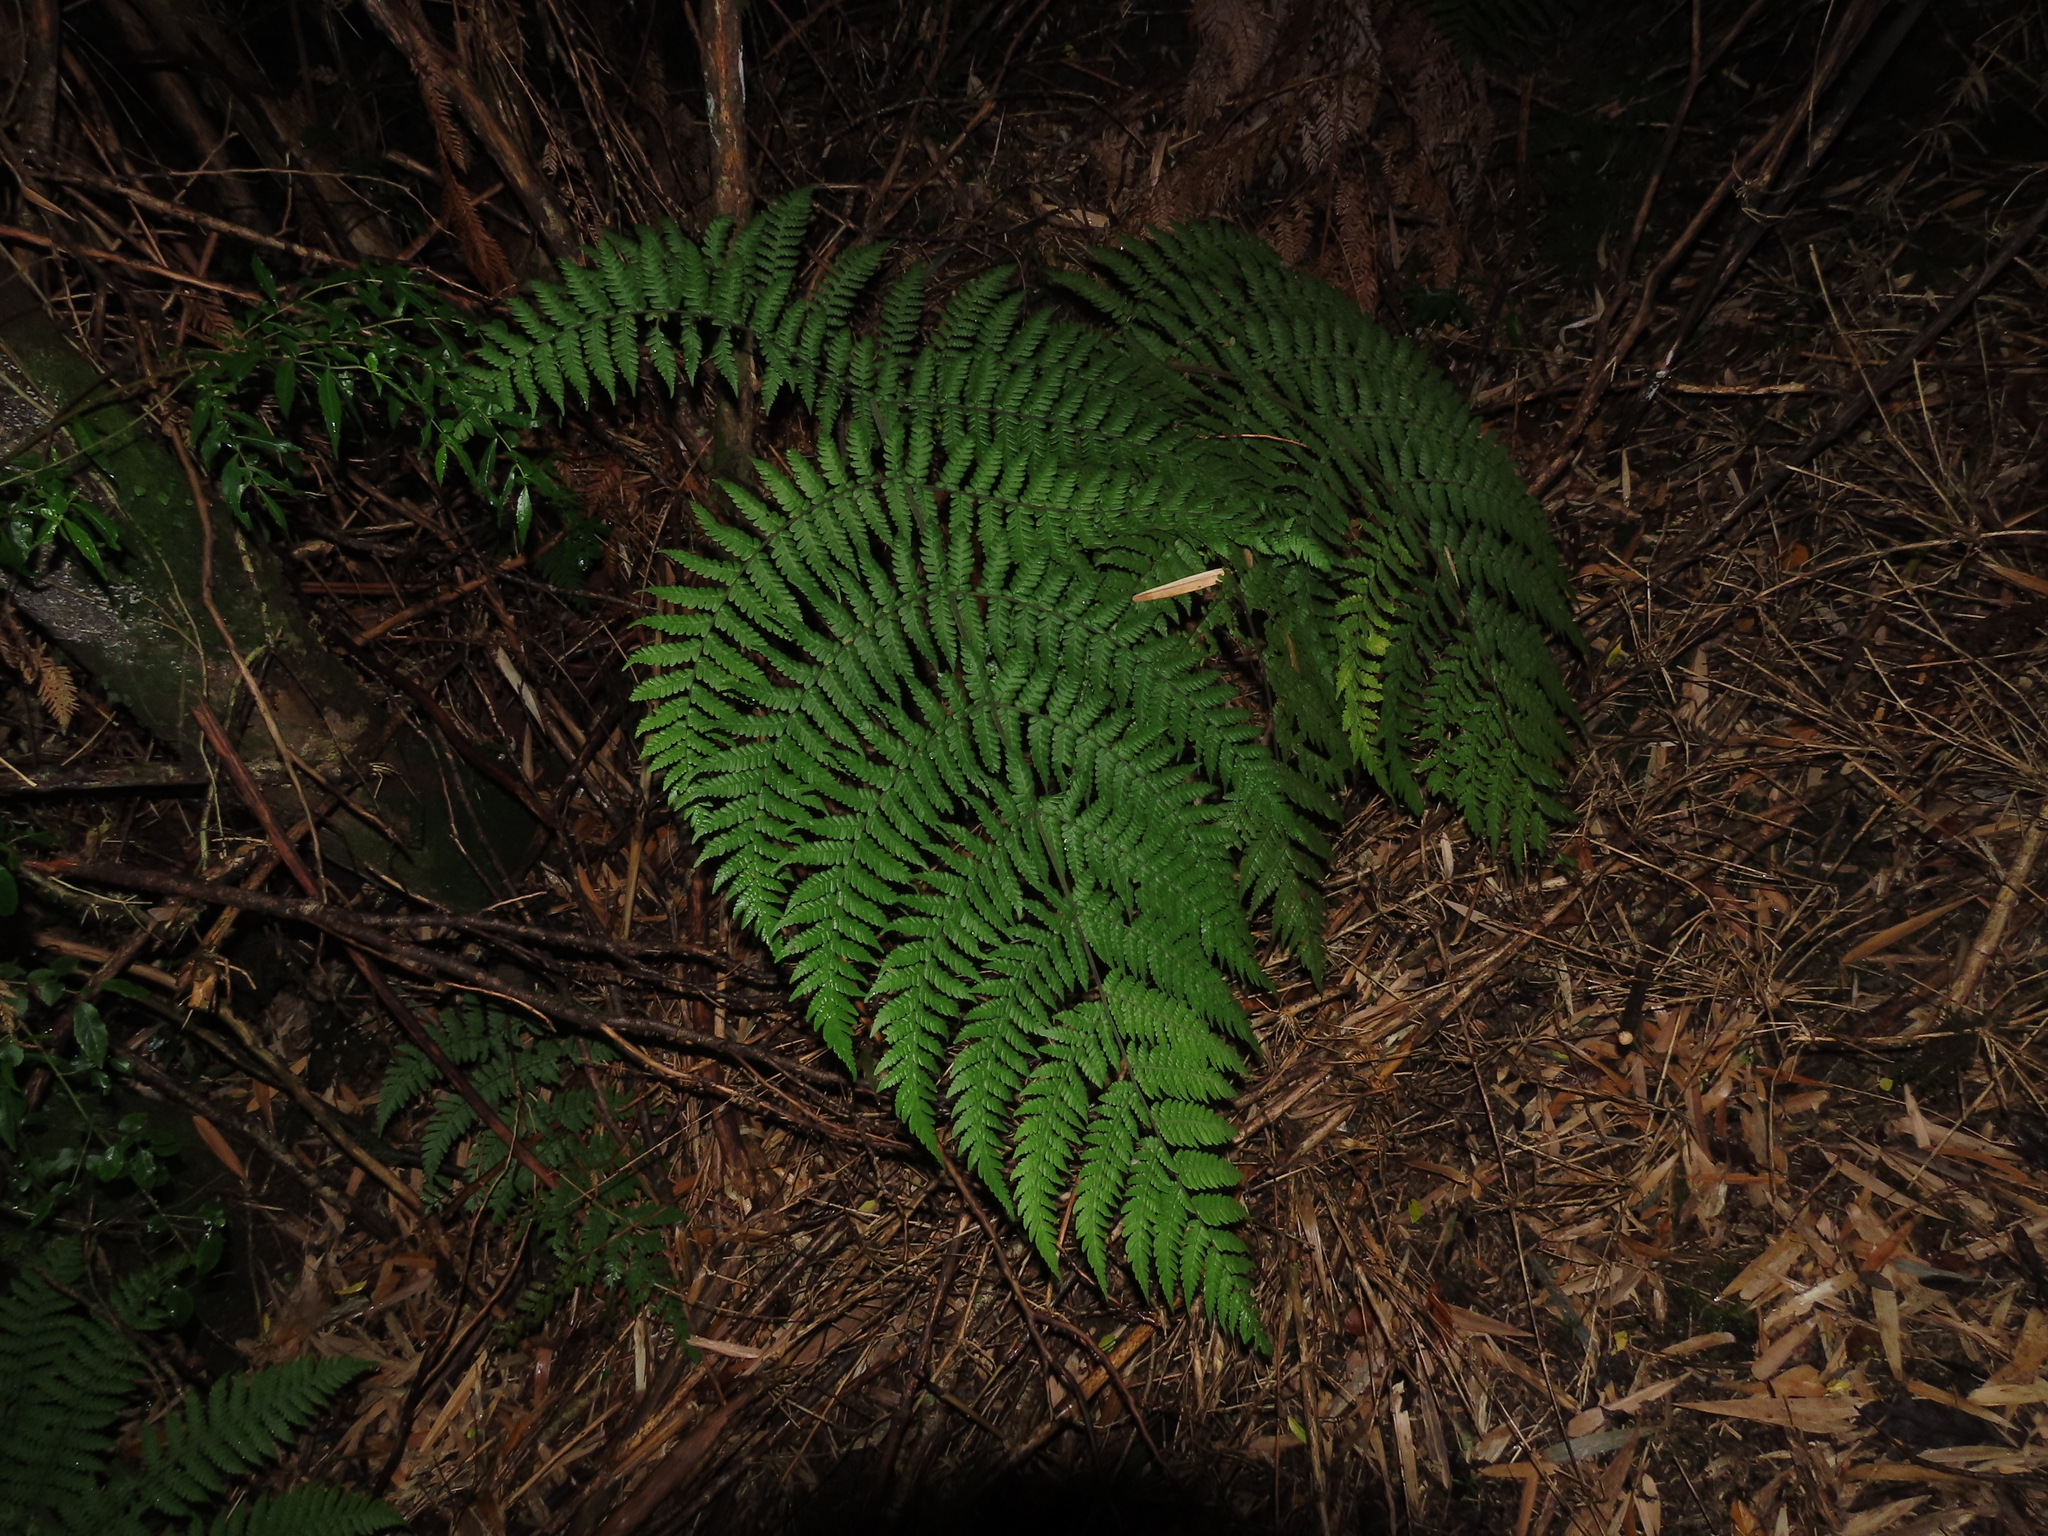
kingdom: Plantae
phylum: Tracheophyta
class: Polypodiopsida
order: Polypodiales
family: Dryopteridaceae
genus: Megalastrum
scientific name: Megalastrum spectabile
